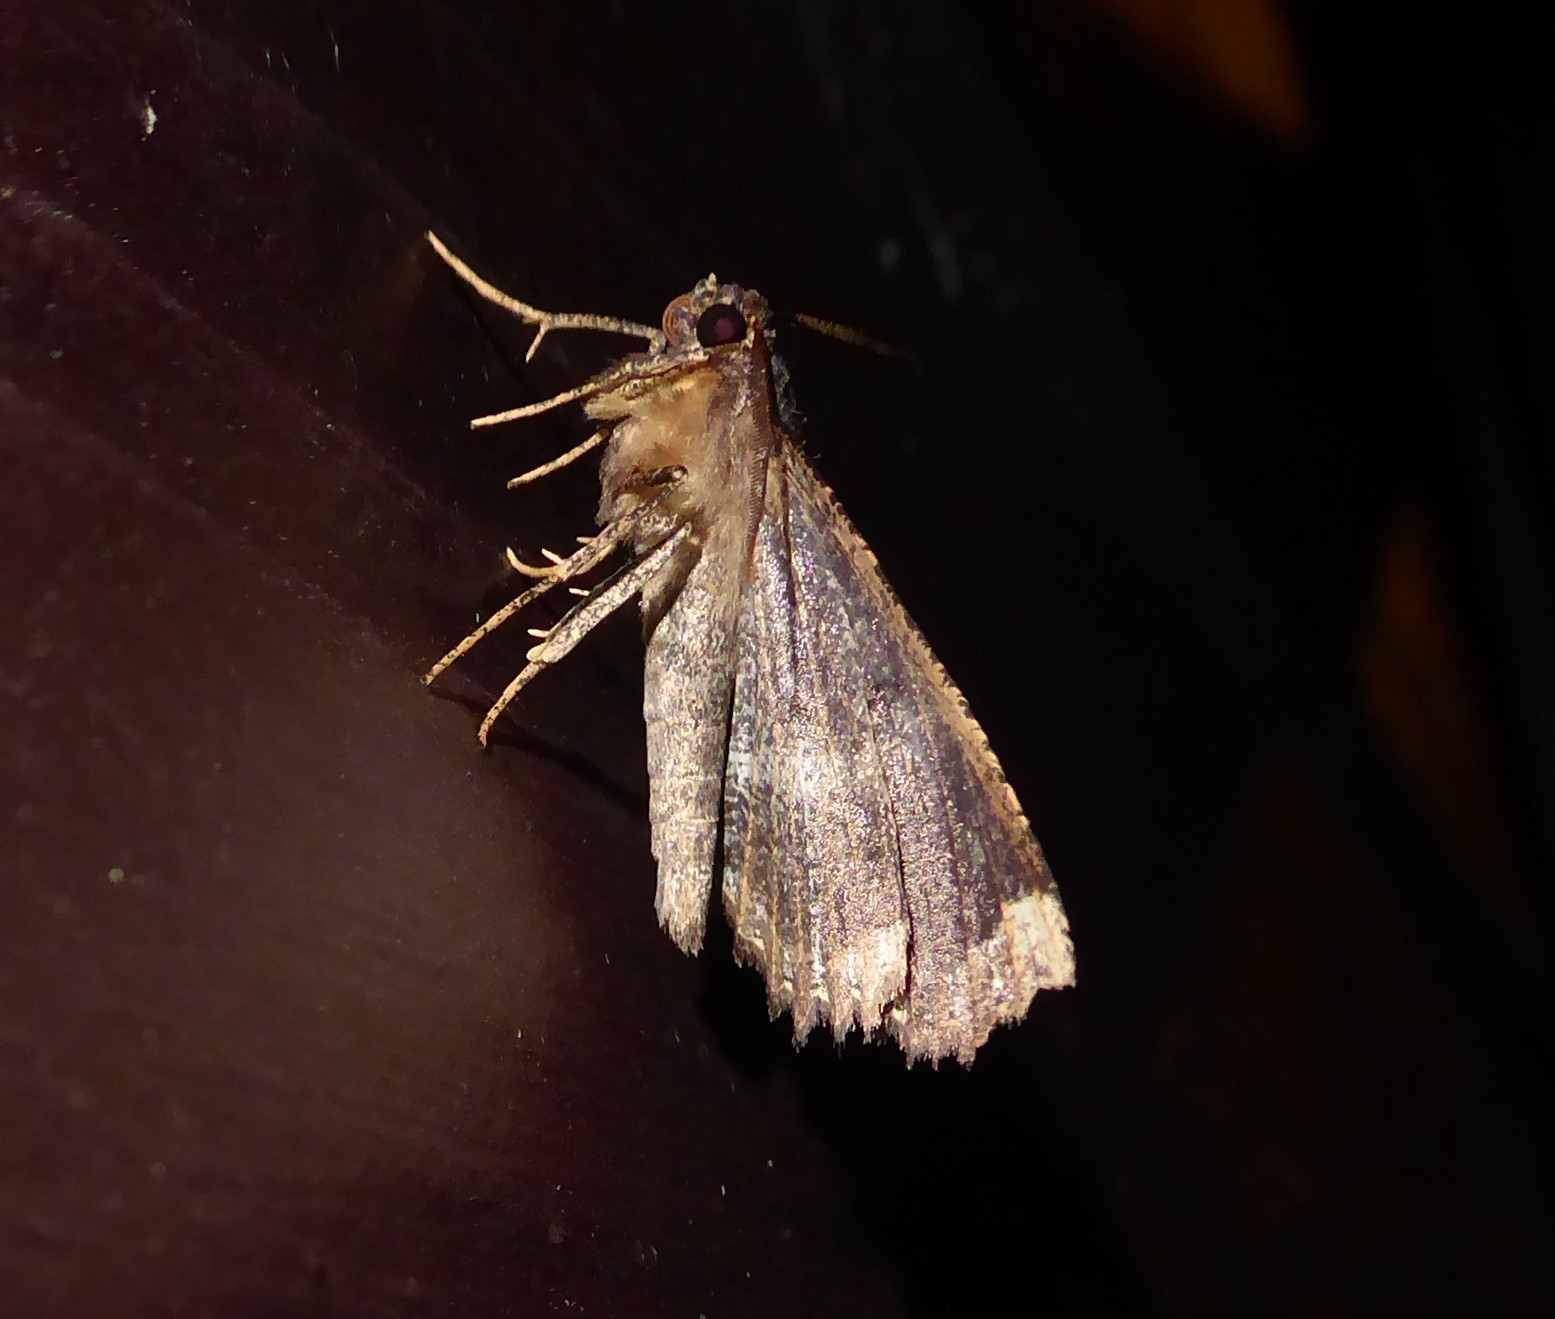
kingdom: Animalia
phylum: Arthropoda
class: Insecta
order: Lepidoptera
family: Geometridae
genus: Gellonia
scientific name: Gellonia dejectaria
